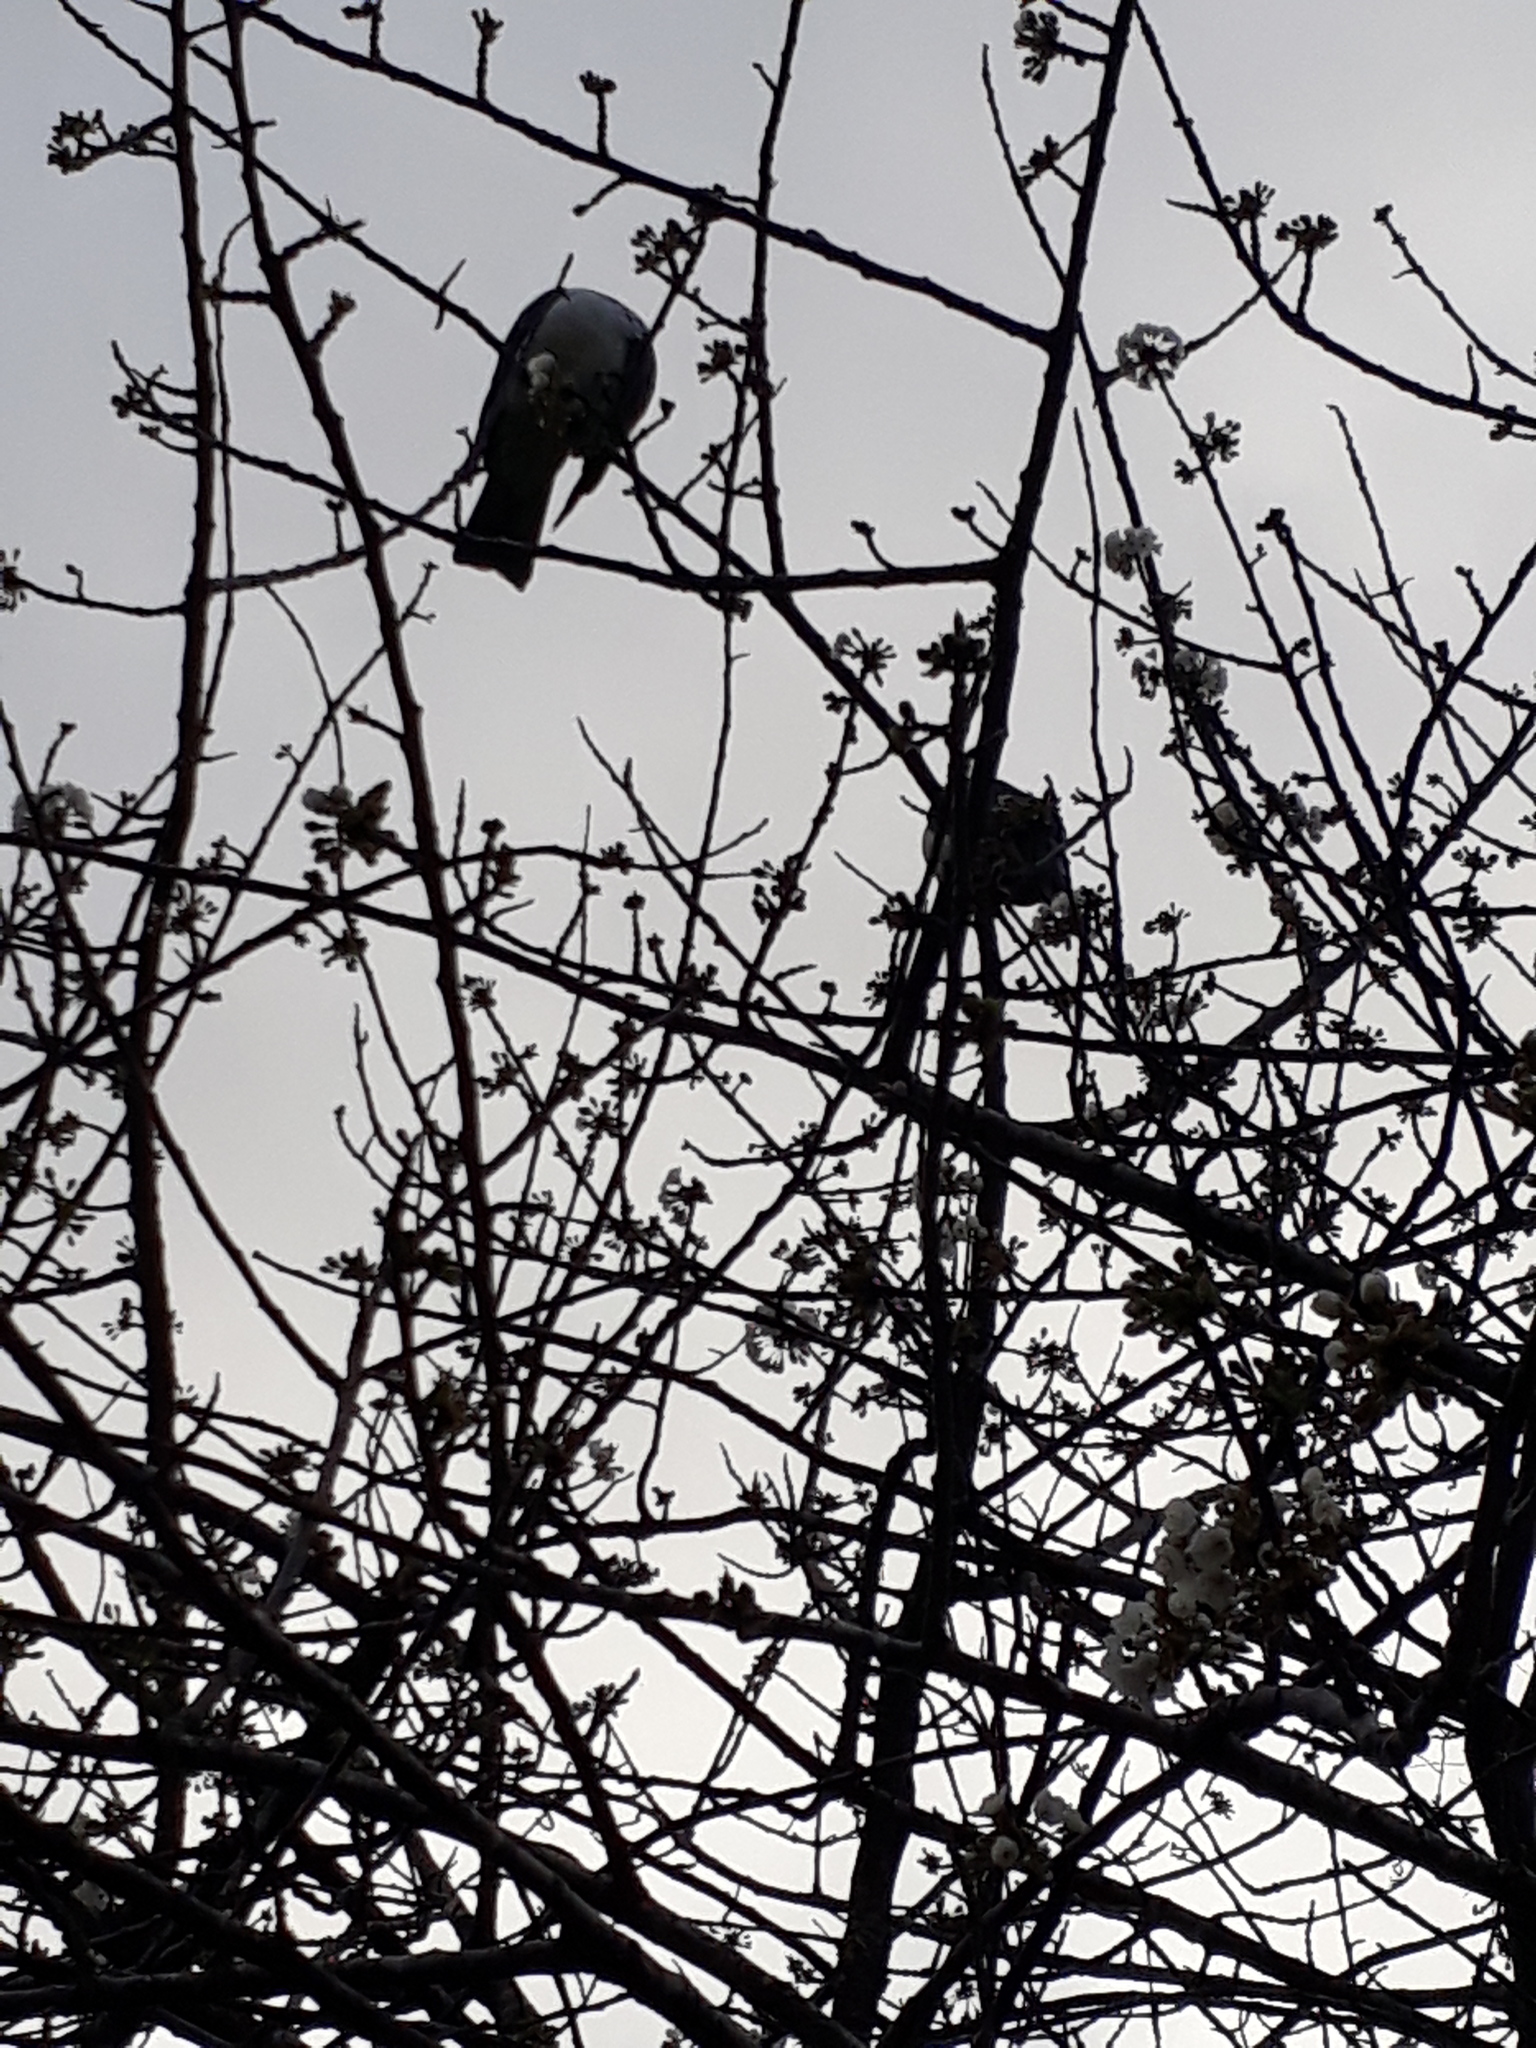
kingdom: Animalia
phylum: Chordata
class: Aves
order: Columbiformes
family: Columbidae
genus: Hemiphaga
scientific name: Hemiphaga novaeseelandiae
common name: New zealand pigeon
